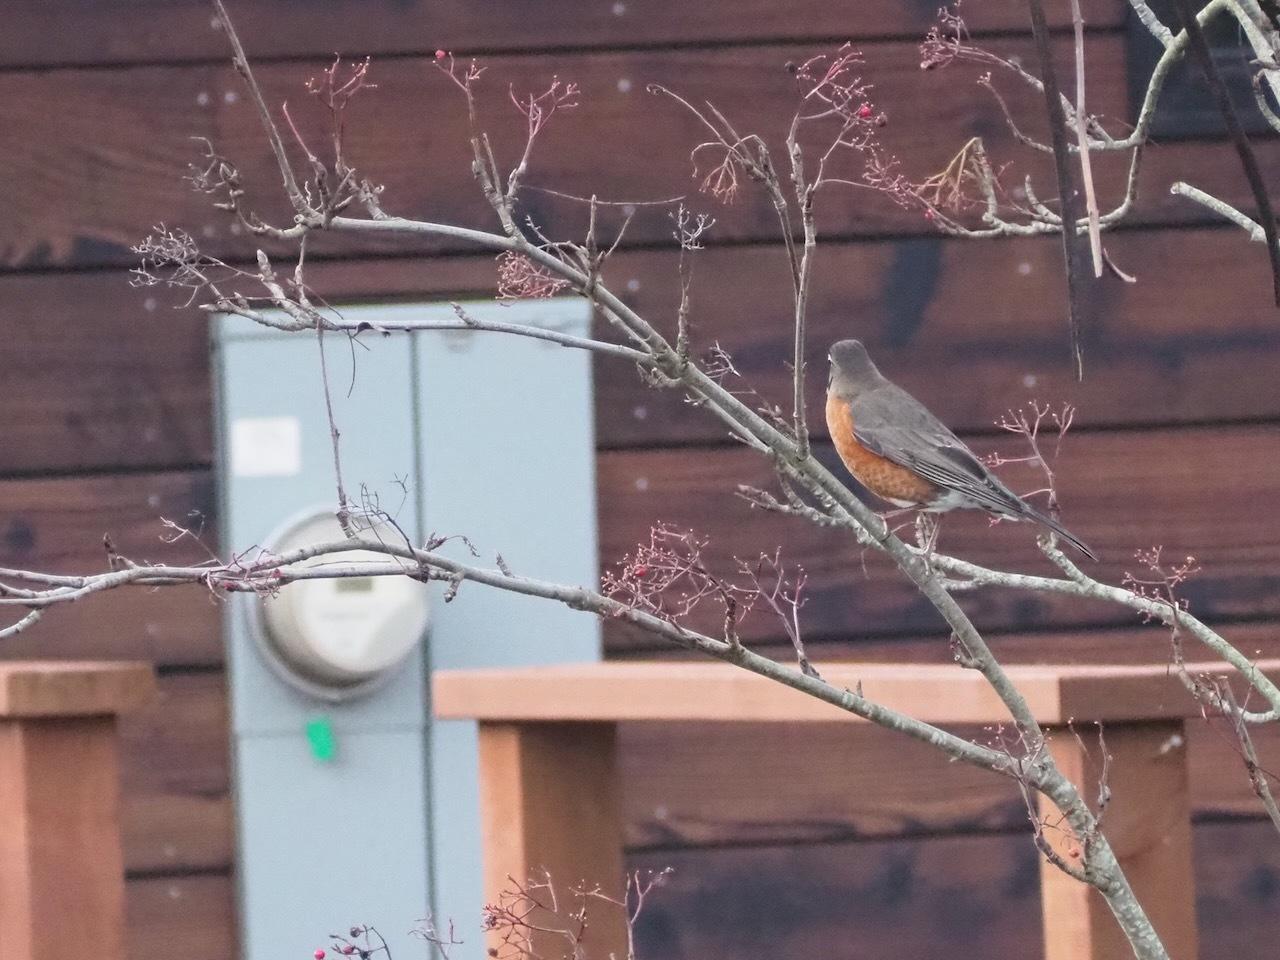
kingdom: Animalia
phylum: Chordata
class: Aves
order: Passeriformes
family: Turdidae
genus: Turdus
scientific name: Turdus migratorius
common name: American robin
